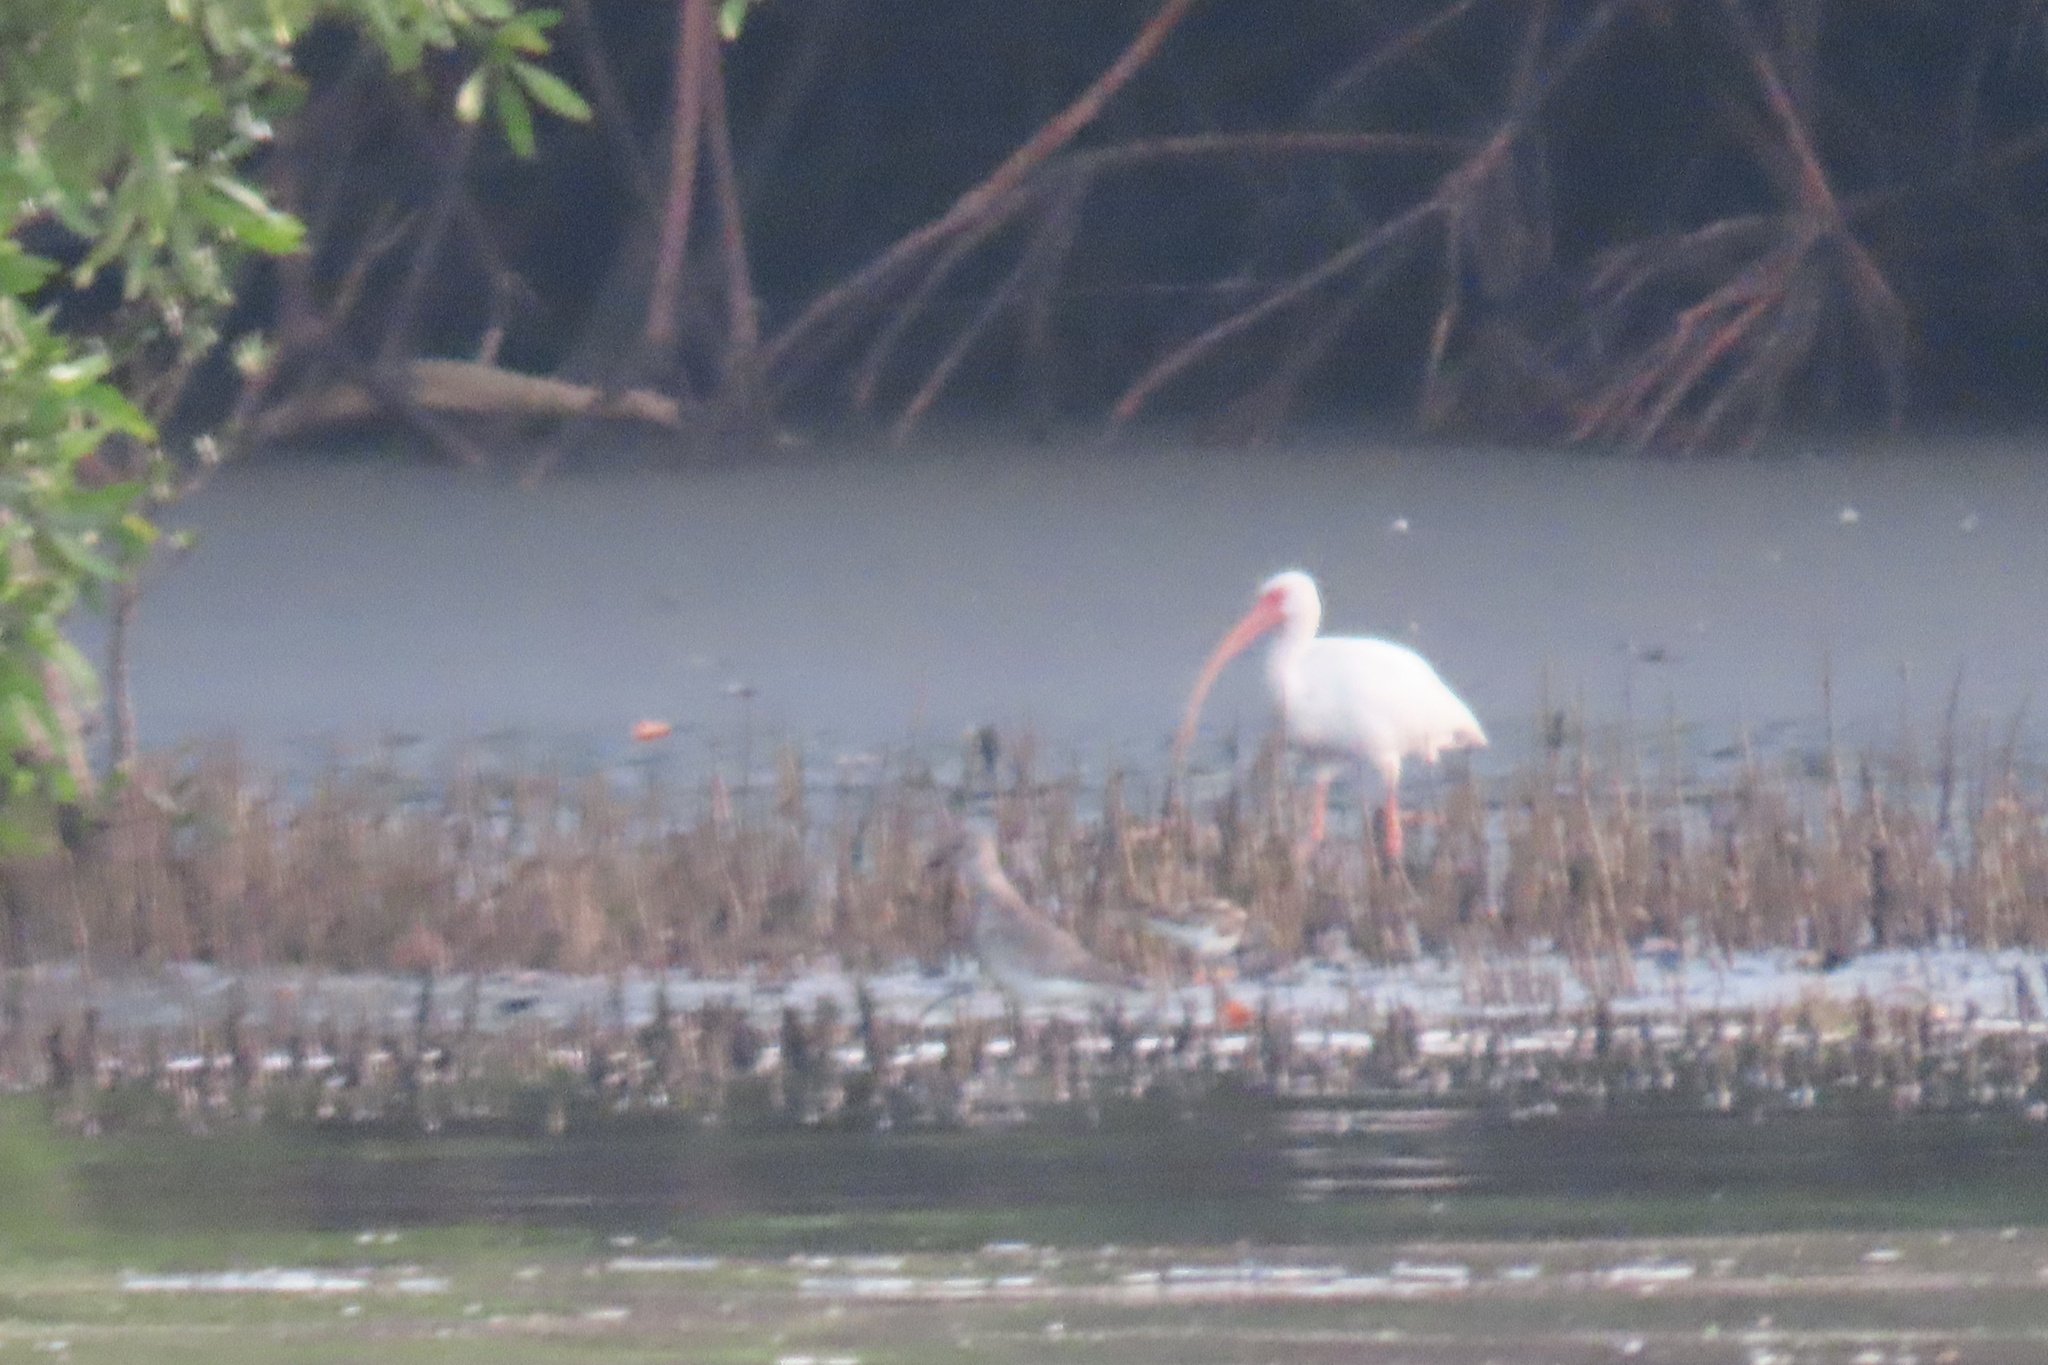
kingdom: Animalia
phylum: Chordata
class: Aves
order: Pelecaniformes
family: Threskiornithidae
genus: Eudocimus
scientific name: Eudocimus albus
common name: White ibis
